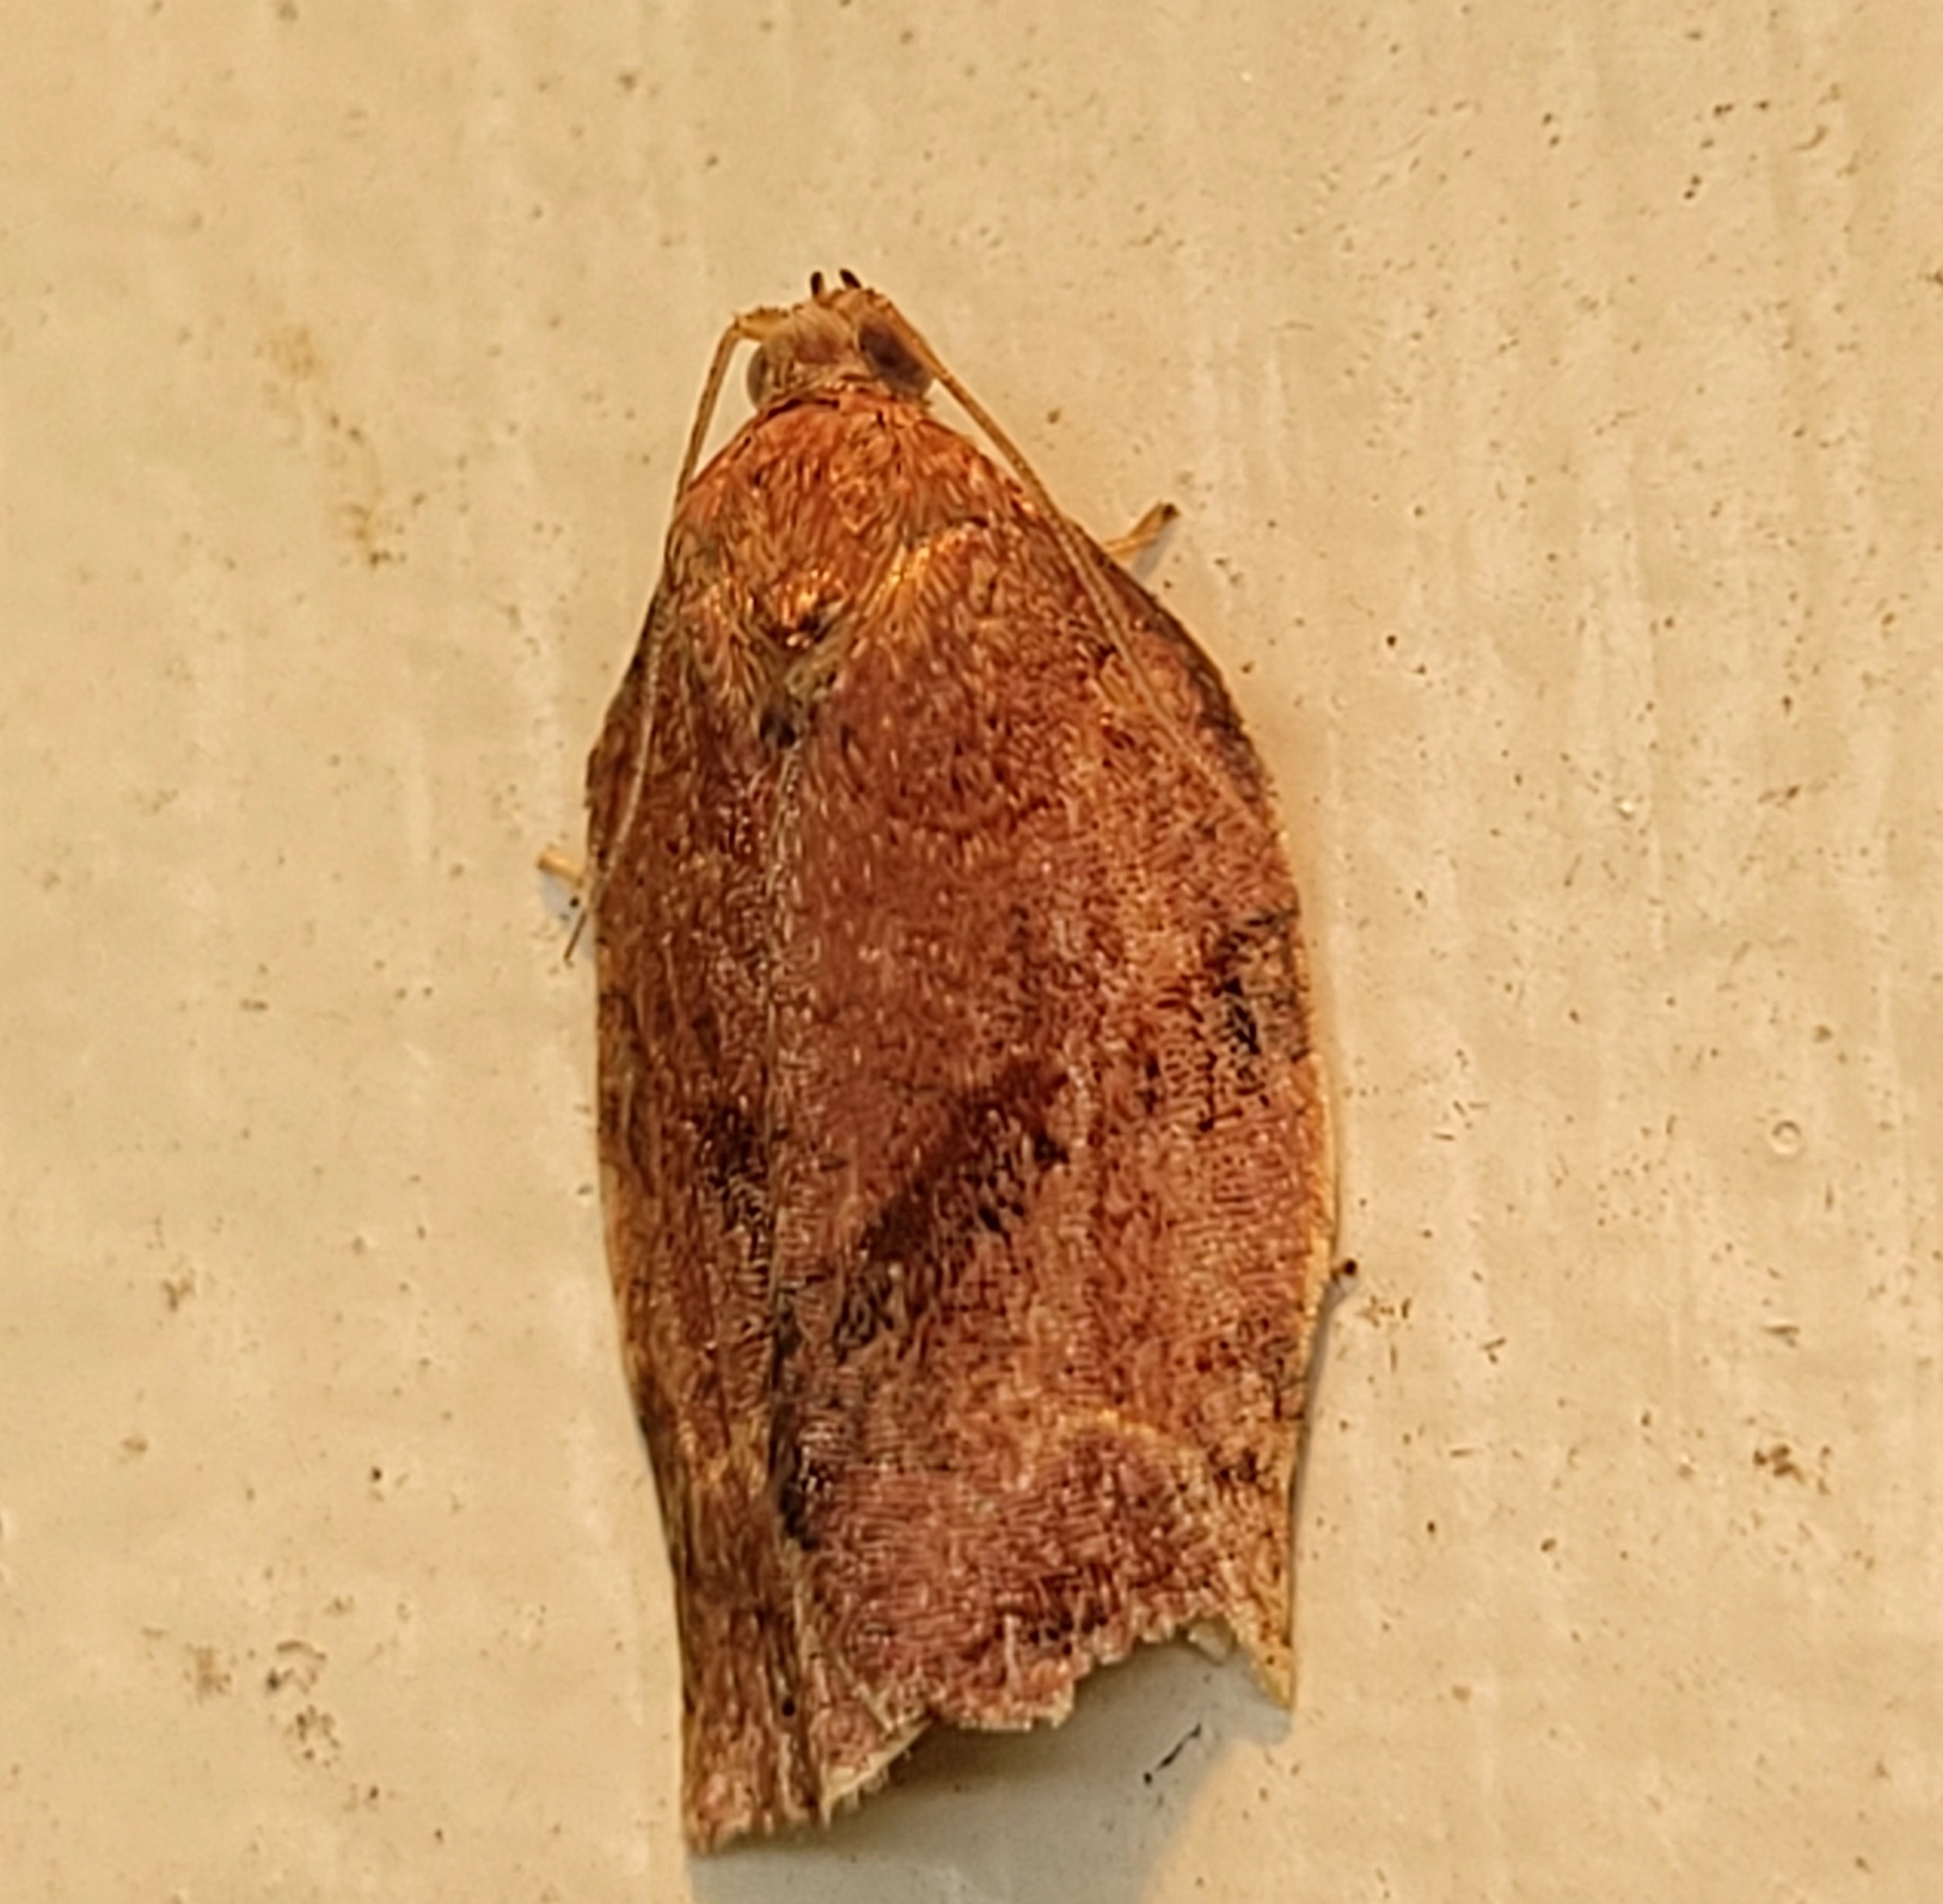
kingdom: Animalia
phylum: Arthropoda
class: Insecta
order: Lepidoptera
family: Tortricidae
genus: Choristoneura
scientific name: Choristoneura rosaceana
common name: Oblique-banded leafroller moth
